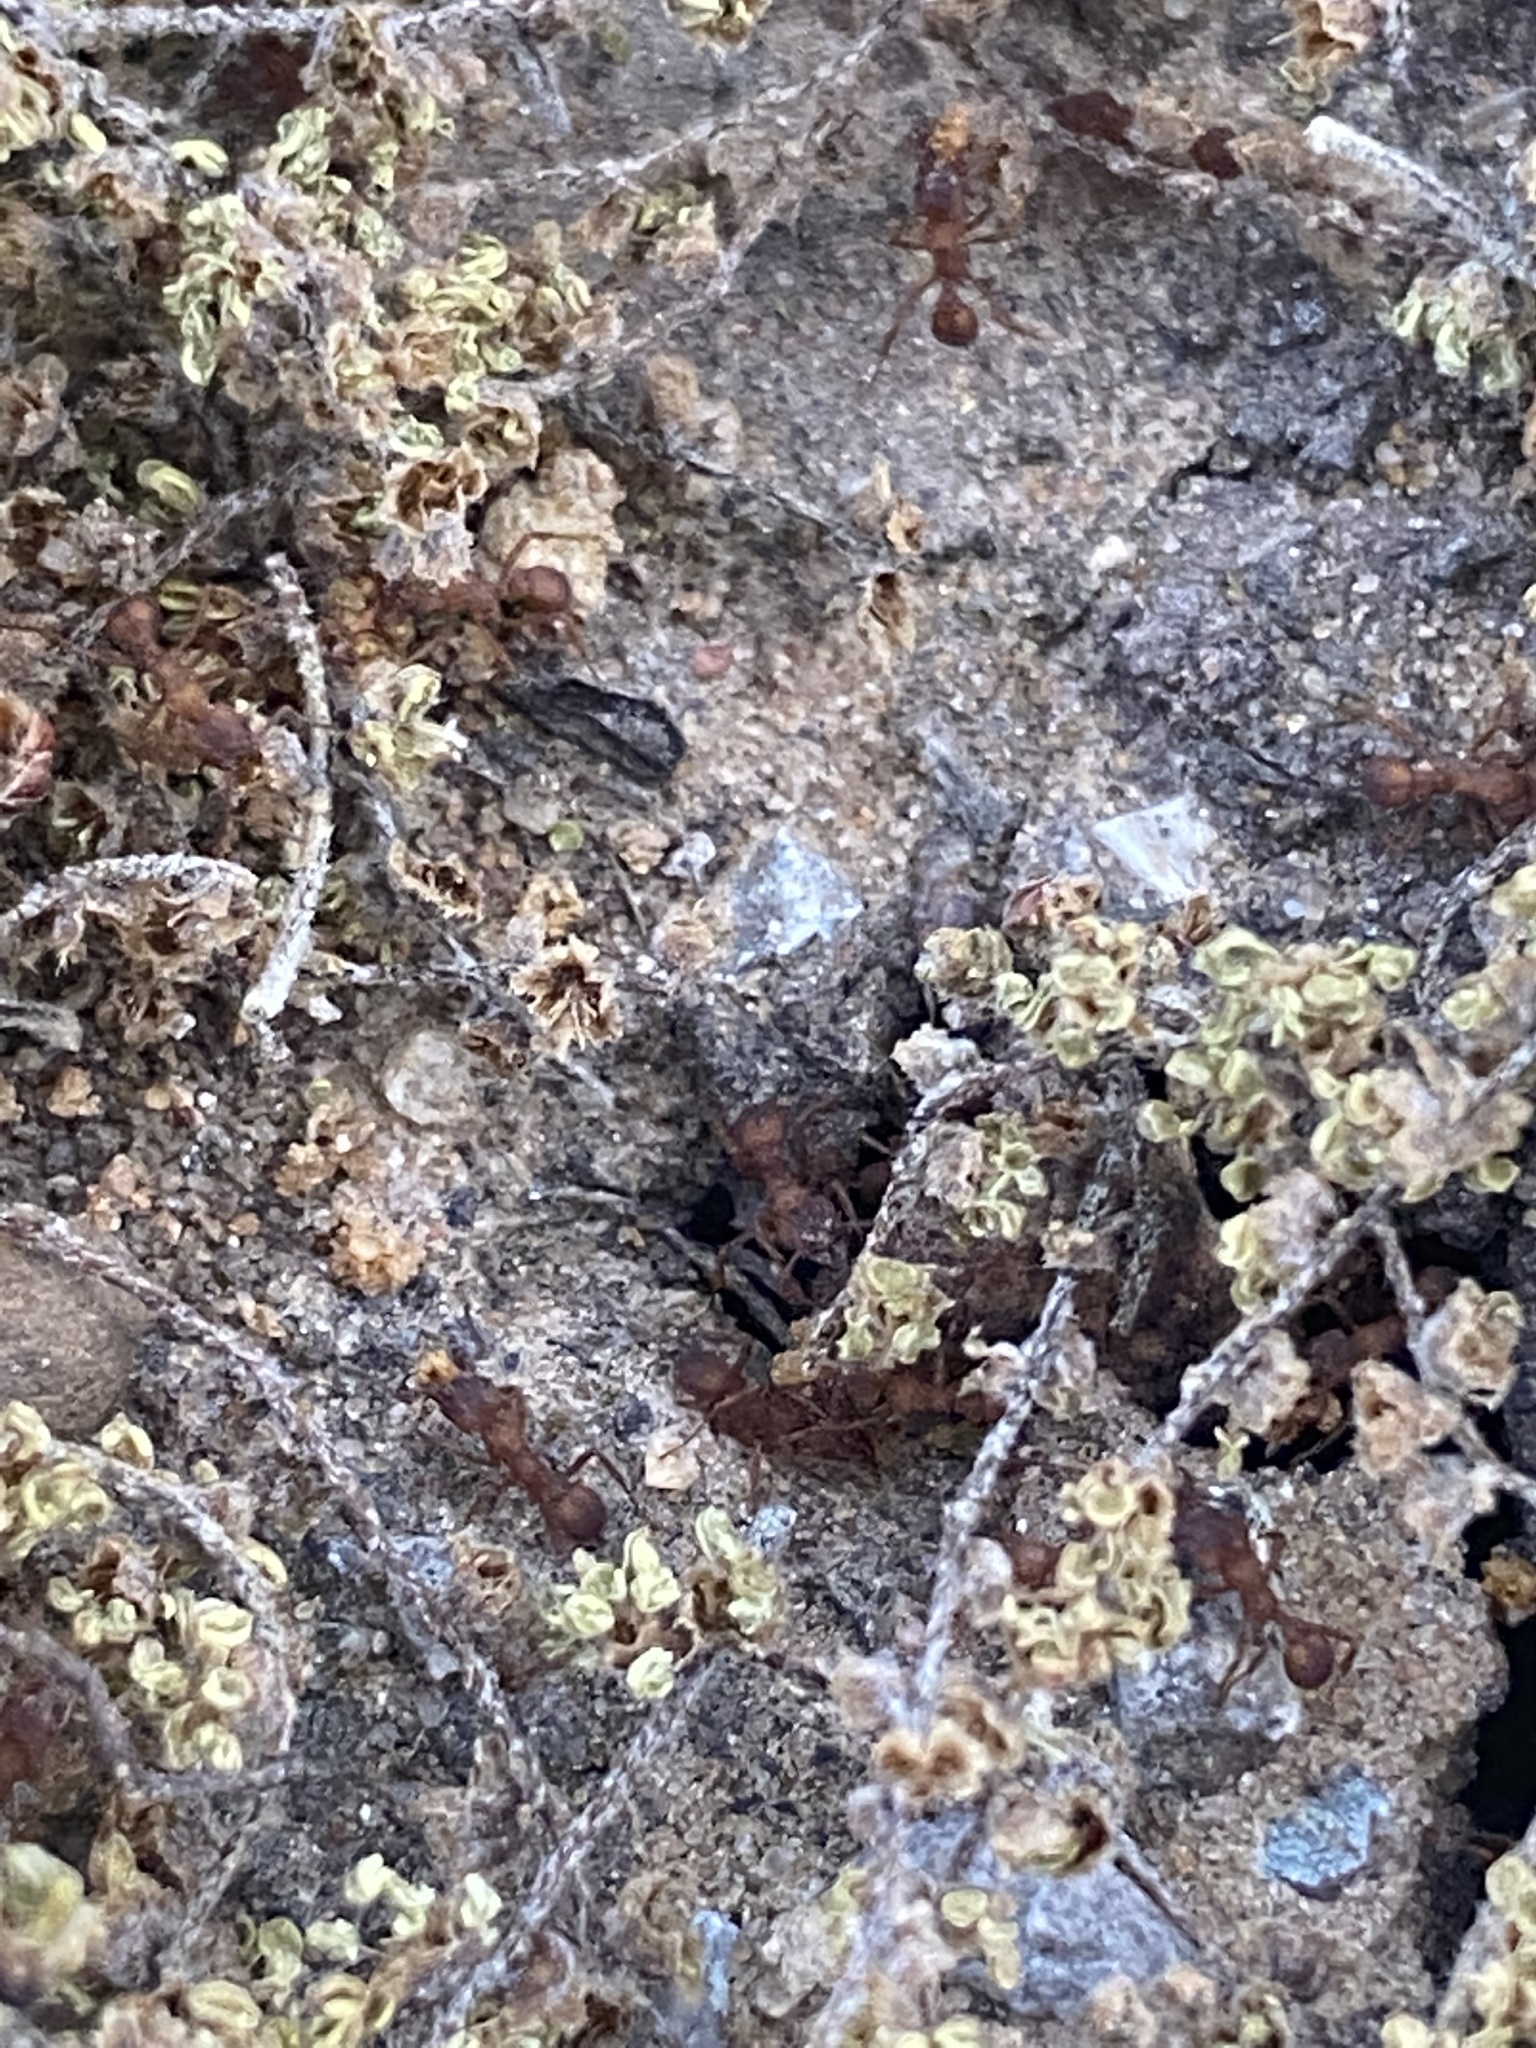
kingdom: Animalia
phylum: Arthropoda
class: Insecta
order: Hymenoptera
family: Formicidae
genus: Trachymyrmex
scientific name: Trachymyrmex septentrionalis
